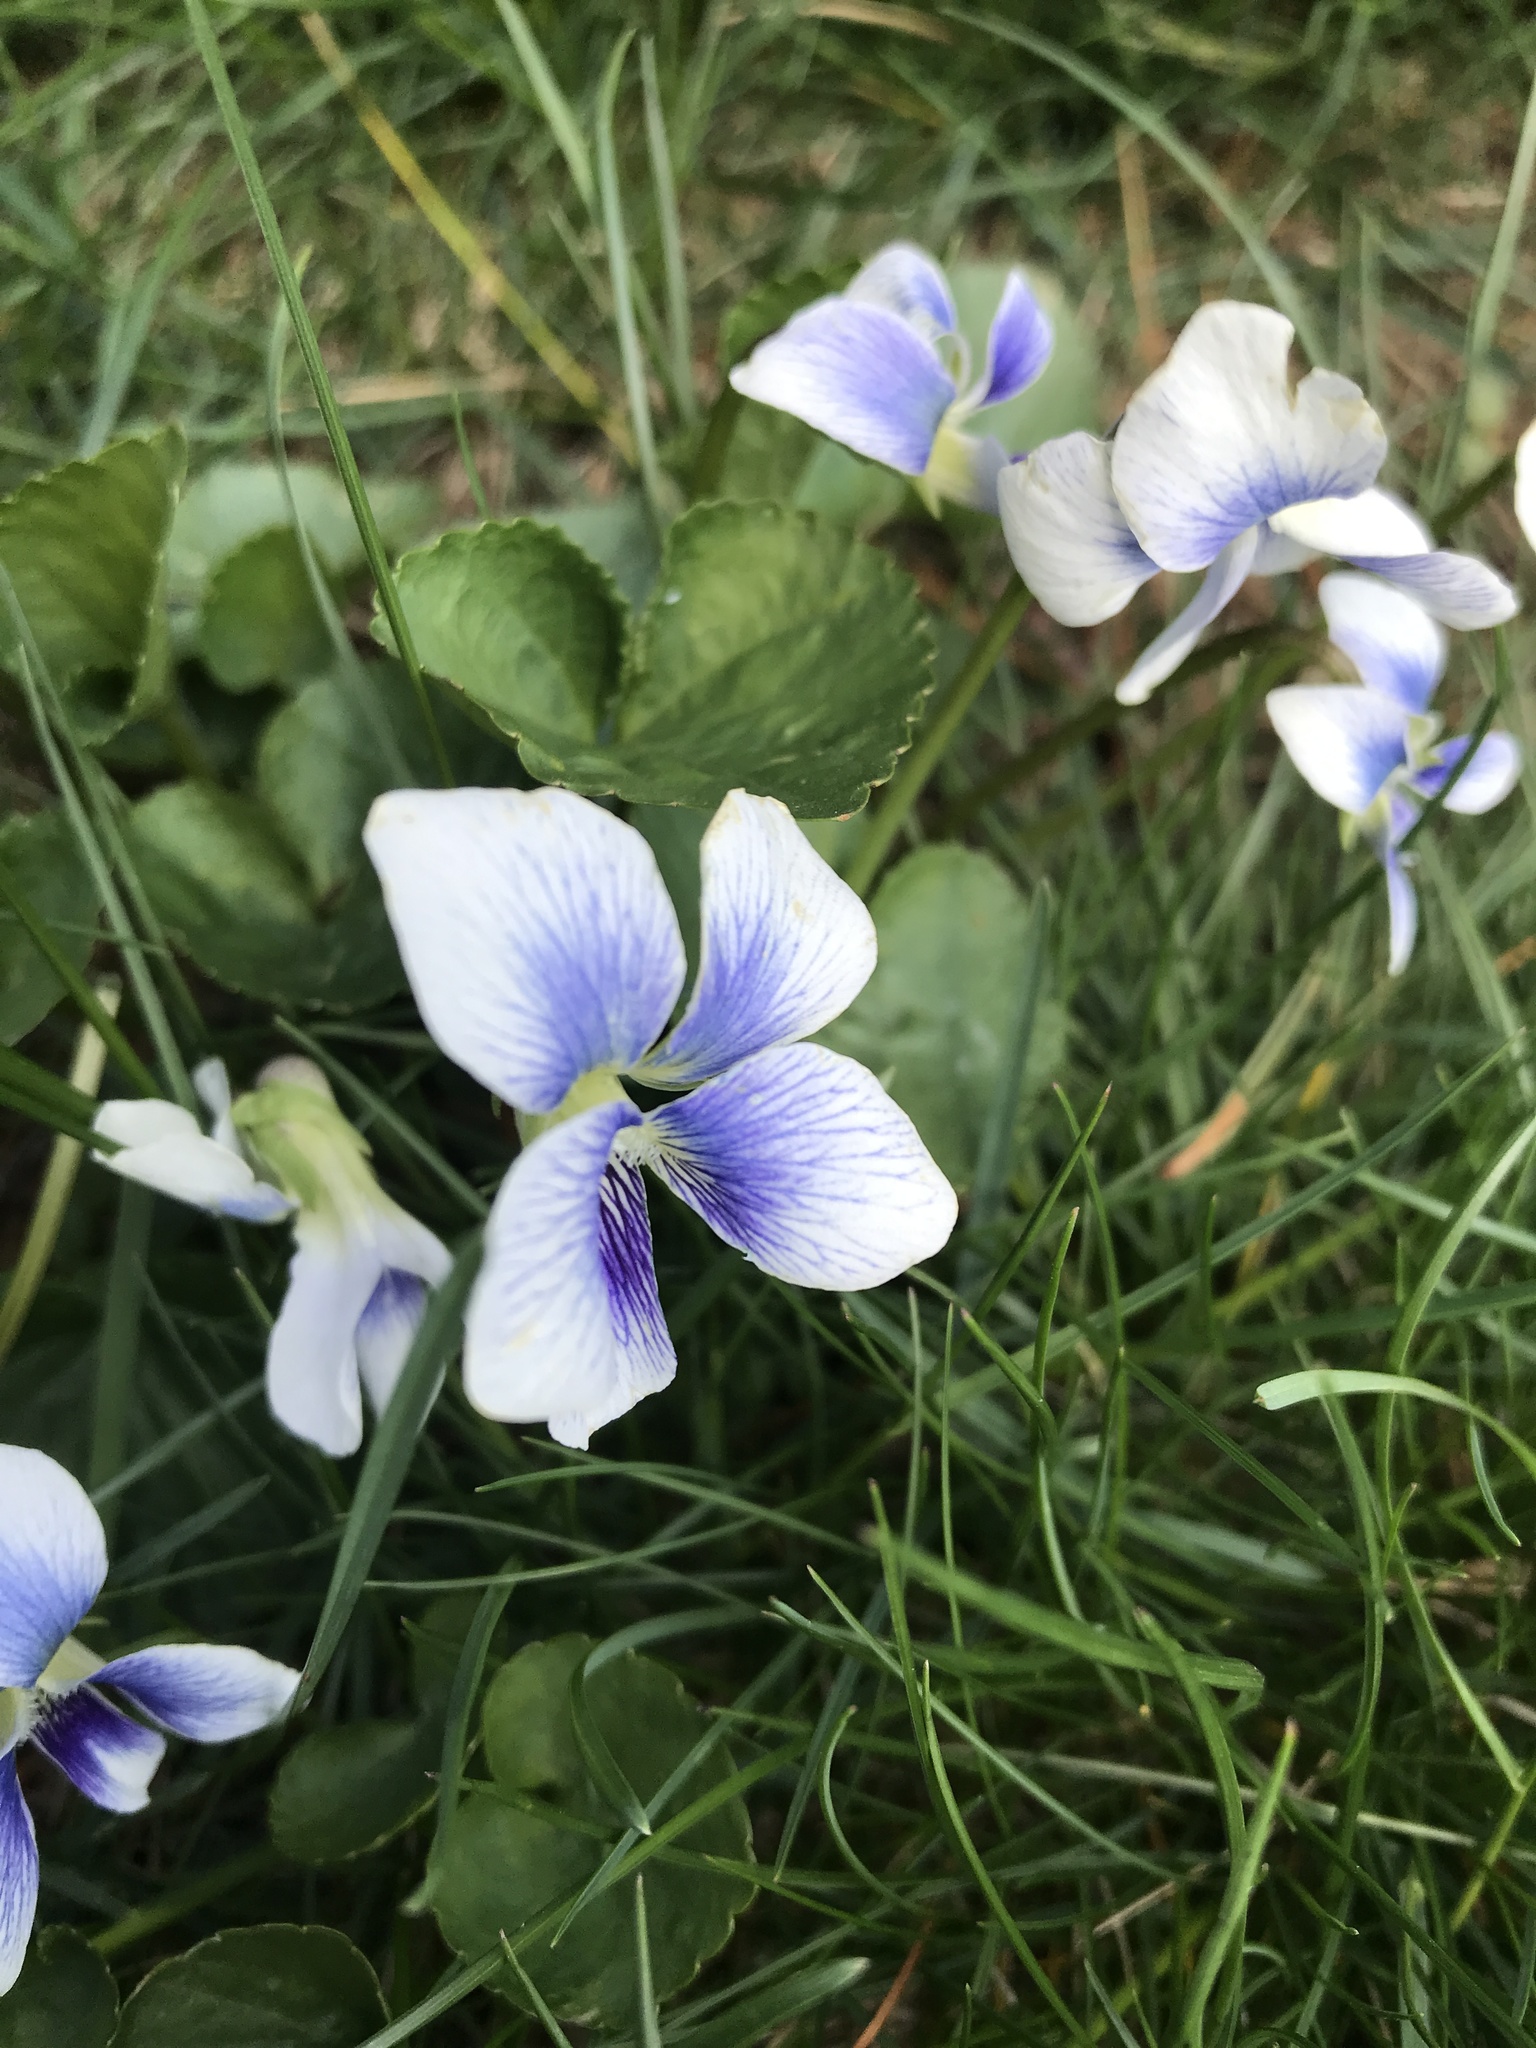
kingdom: Plantae
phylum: Tracheophyta
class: Magnoliopsida
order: Malpighiales
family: Violaceae
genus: Viola
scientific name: Viola sororia
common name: Dooryard violet
